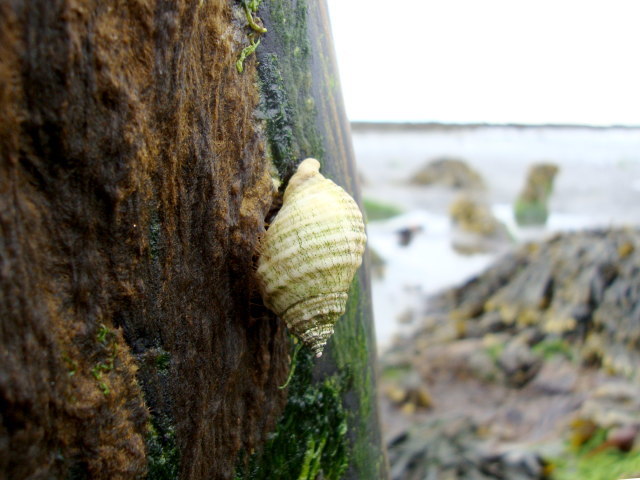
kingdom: Animalia
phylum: Mollusca
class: Gastropoda
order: Neogastropoda
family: Muricidae
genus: Nucella
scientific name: Nucella lapillus
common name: Dog whelk
